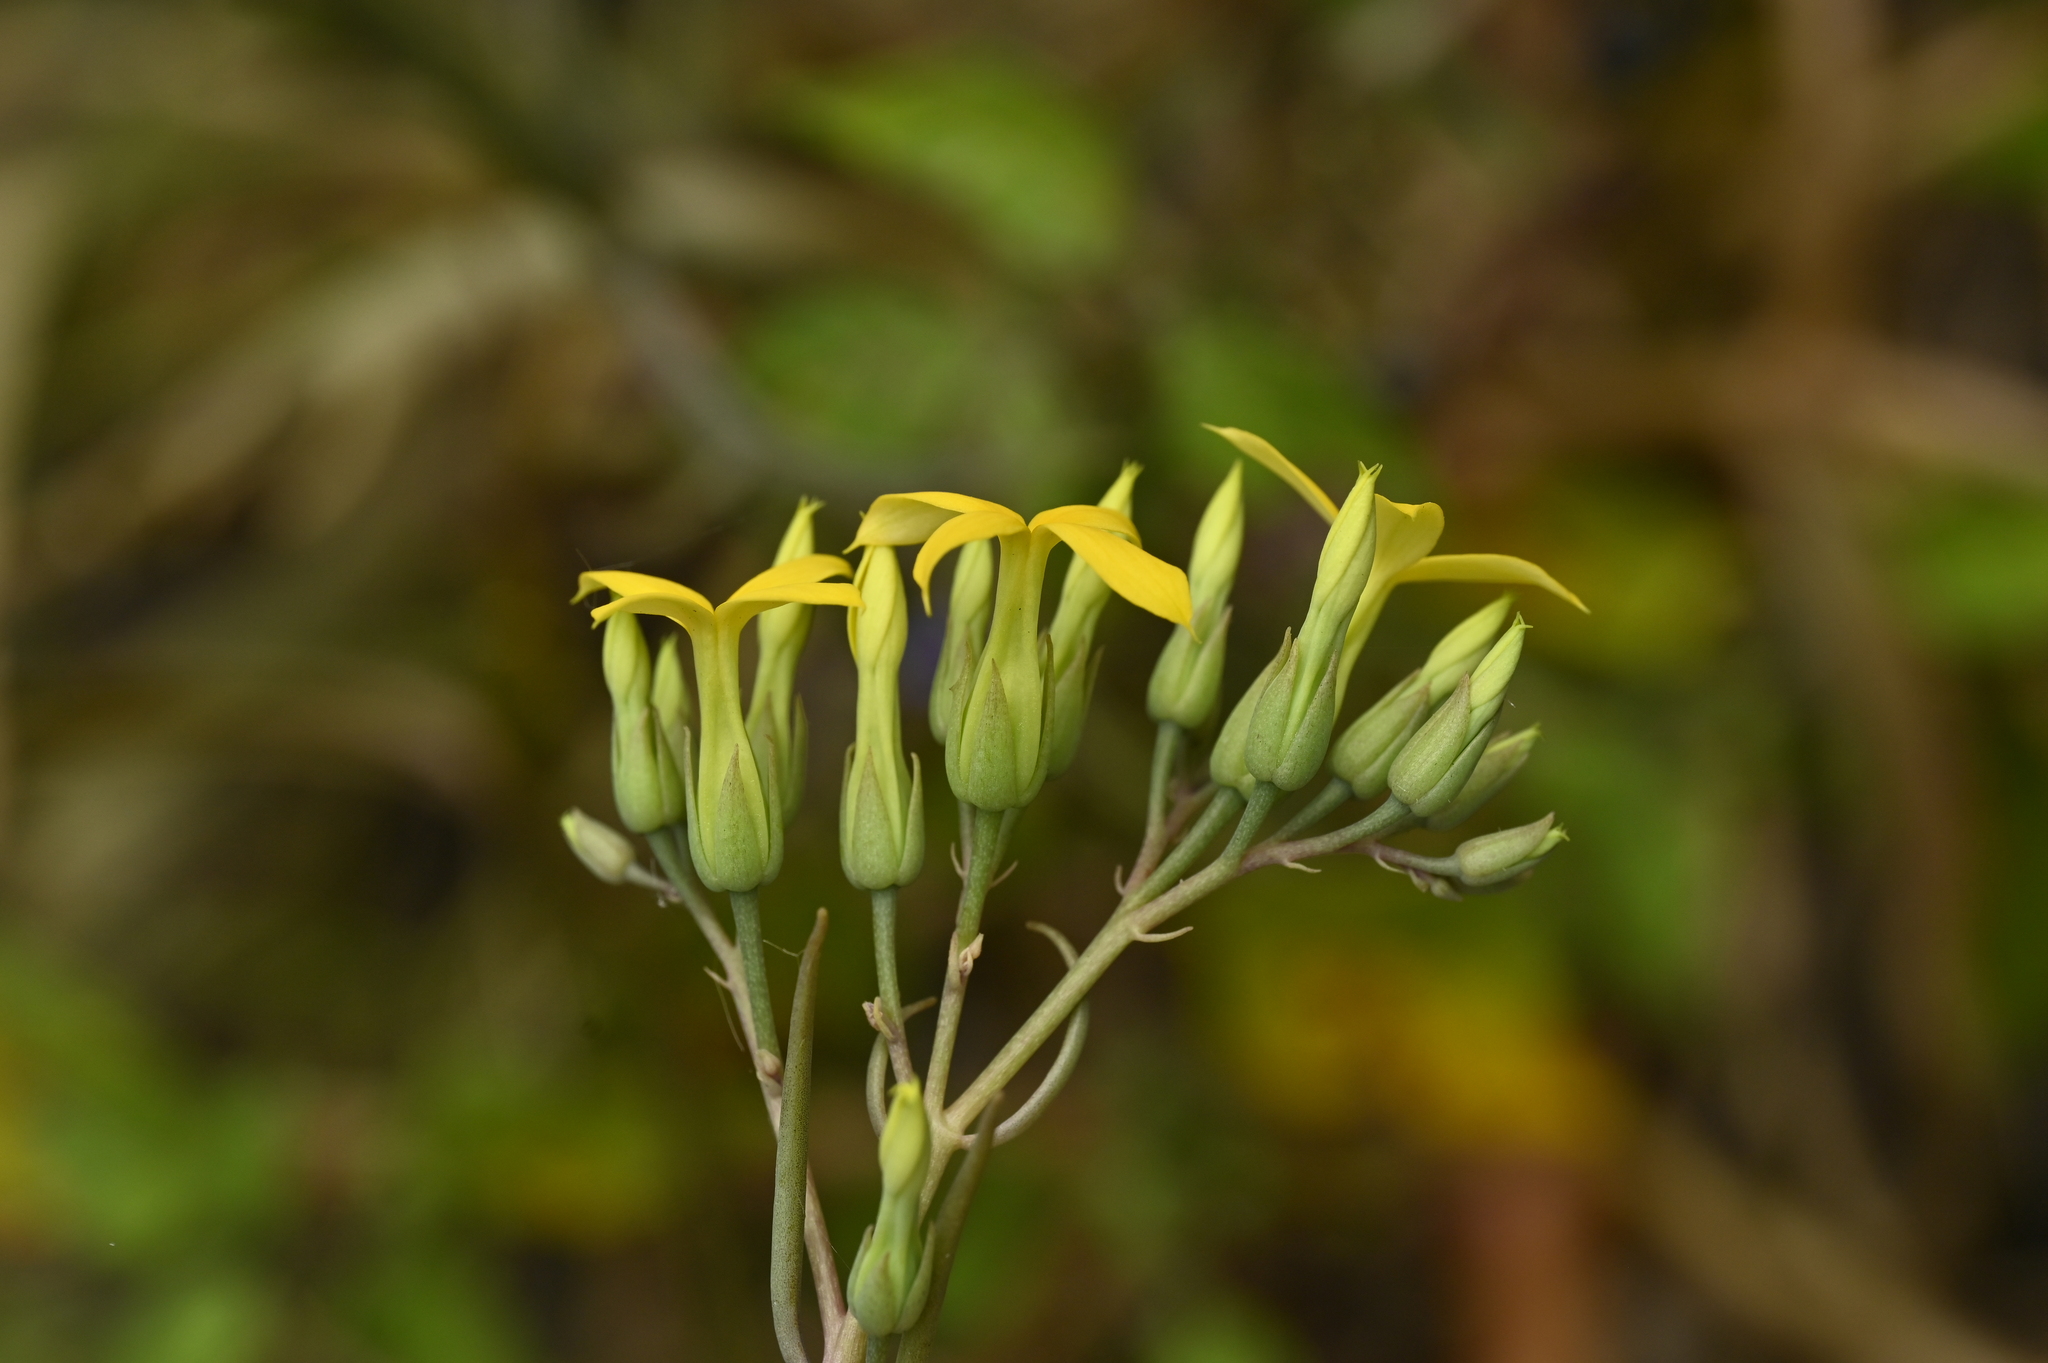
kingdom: Plantae
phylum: Tracheophyta
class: Magnoliopsida
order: Saxifragales
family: Crassulaceae
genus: Kalanchoe
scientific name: Kalanchoe ceratophylla
